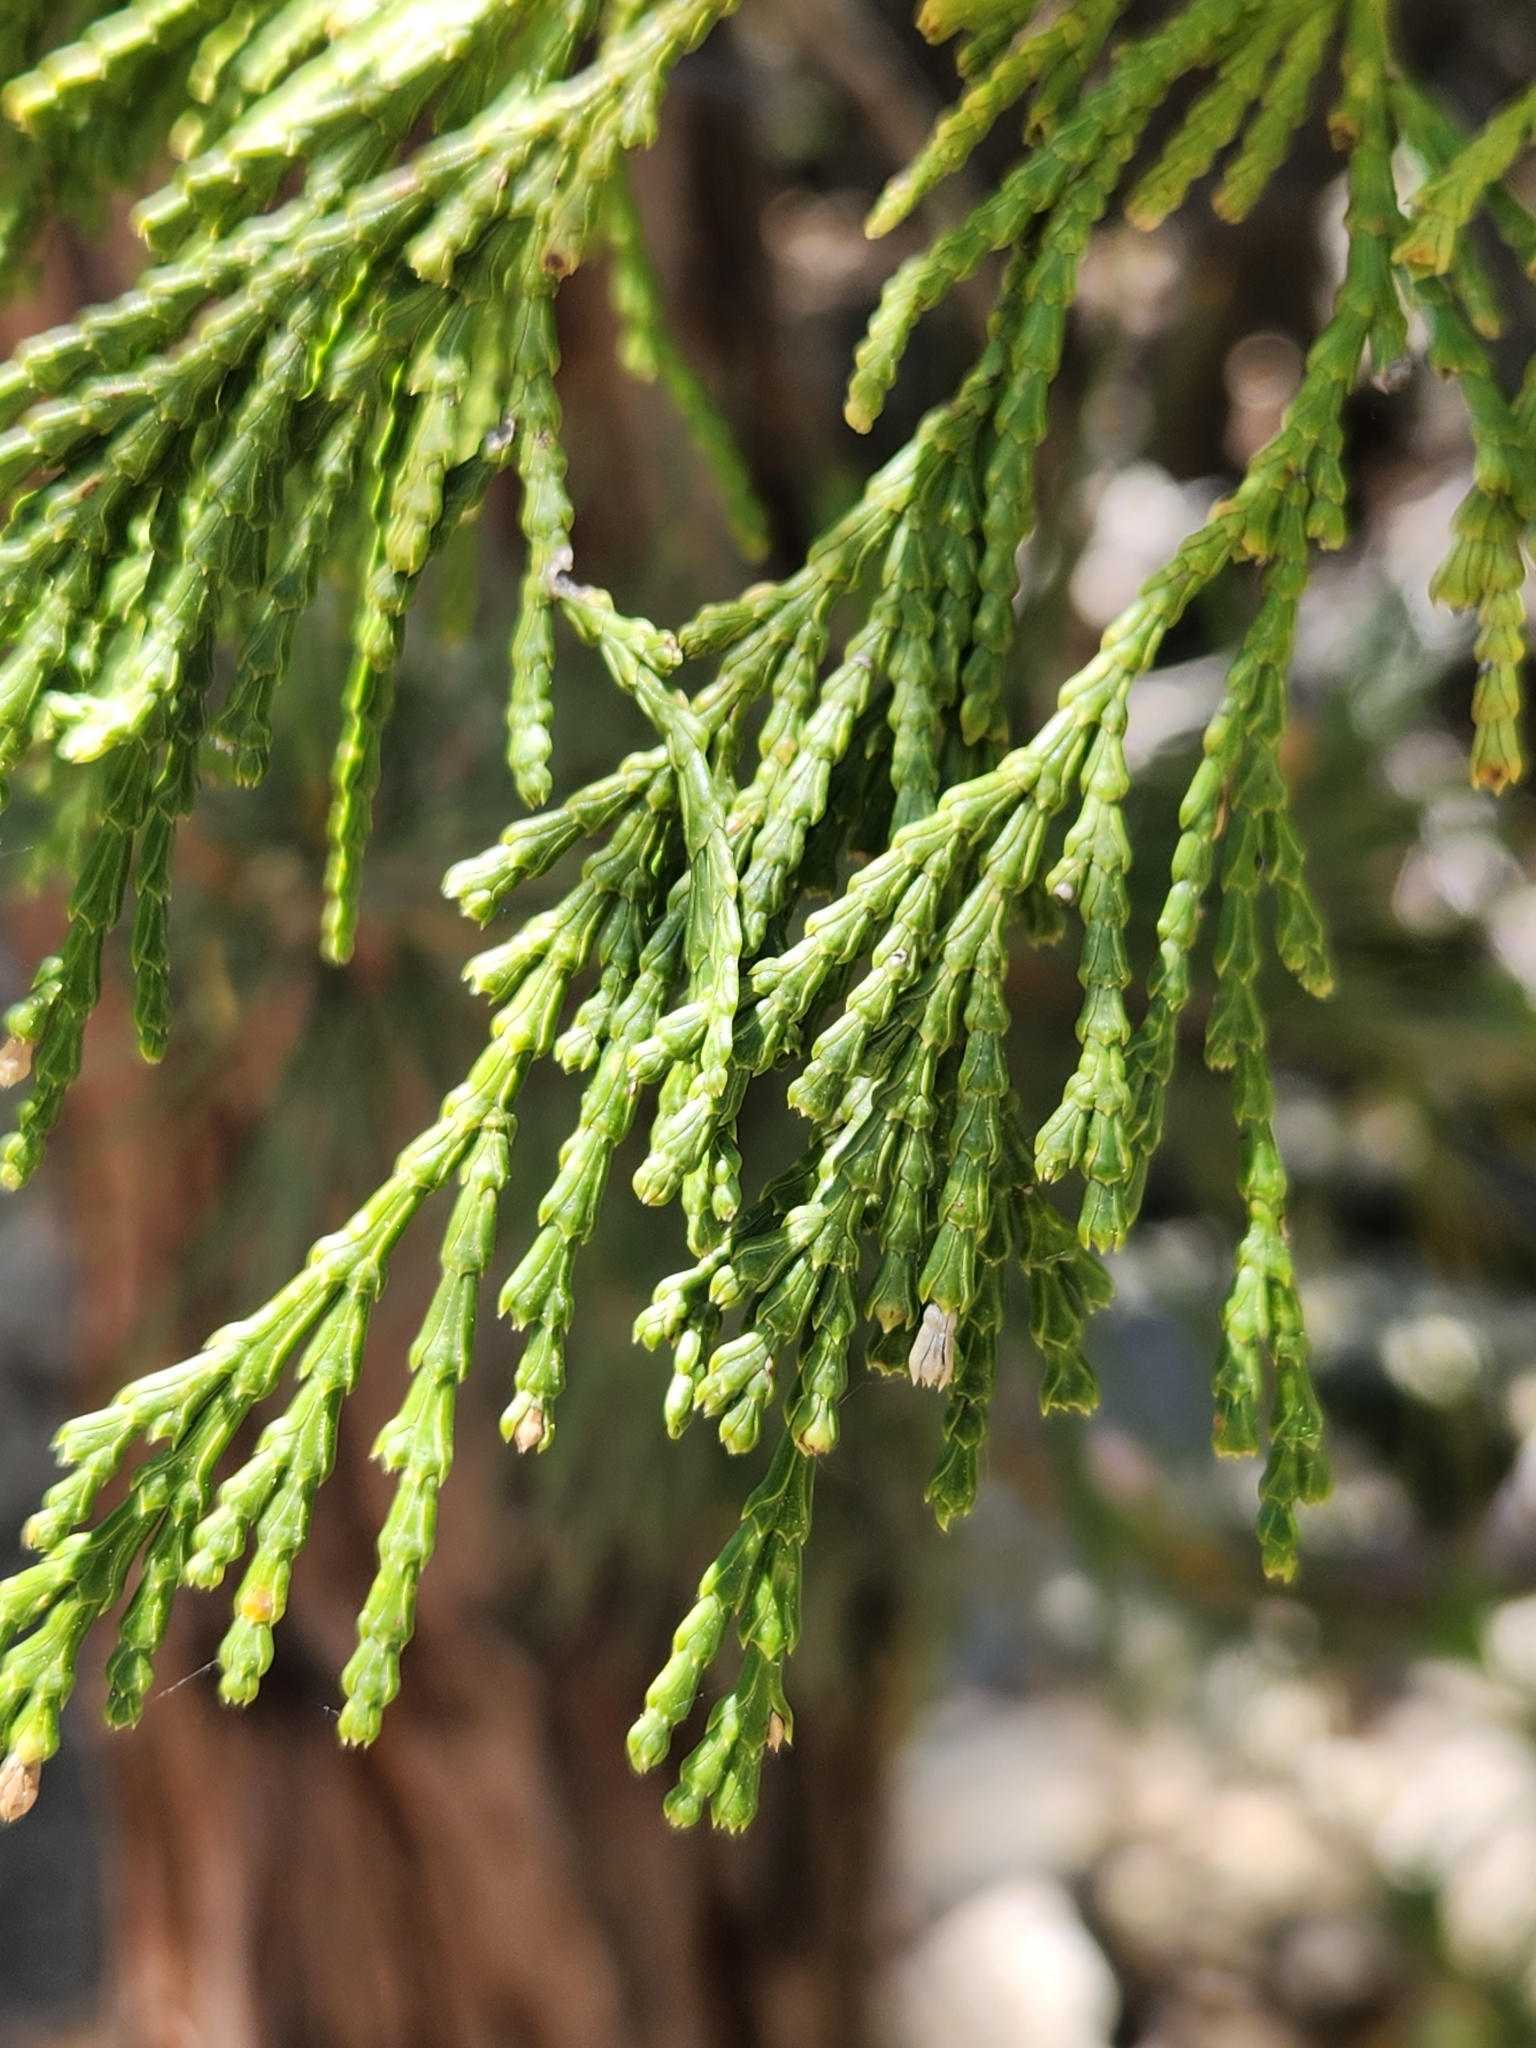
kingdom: Plantae
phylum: Tracheophyta
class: Pinopsida
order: Pinales
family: Cupressaceae
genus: Calocedrus
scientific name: Calocedrus decurrens
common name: Californian incense-cedar
